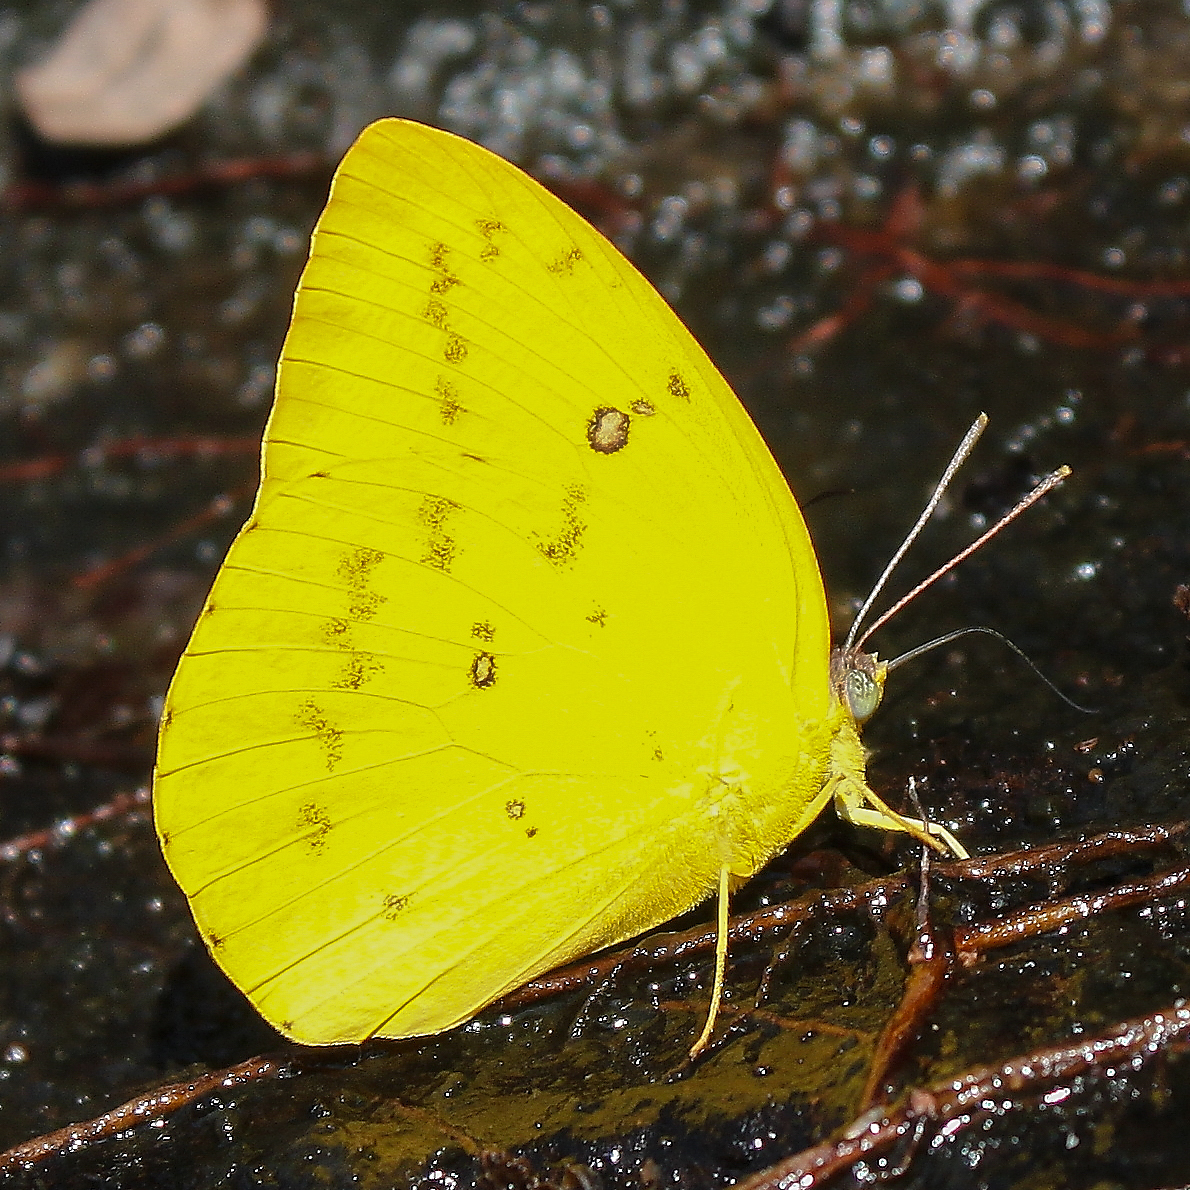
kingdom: Animalia
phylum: Arthropoda
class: Insecta
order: Lepidoptera
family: Pieridae
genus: Catopsilia
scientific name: Catopsilia scylla
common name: Orange emigrant
